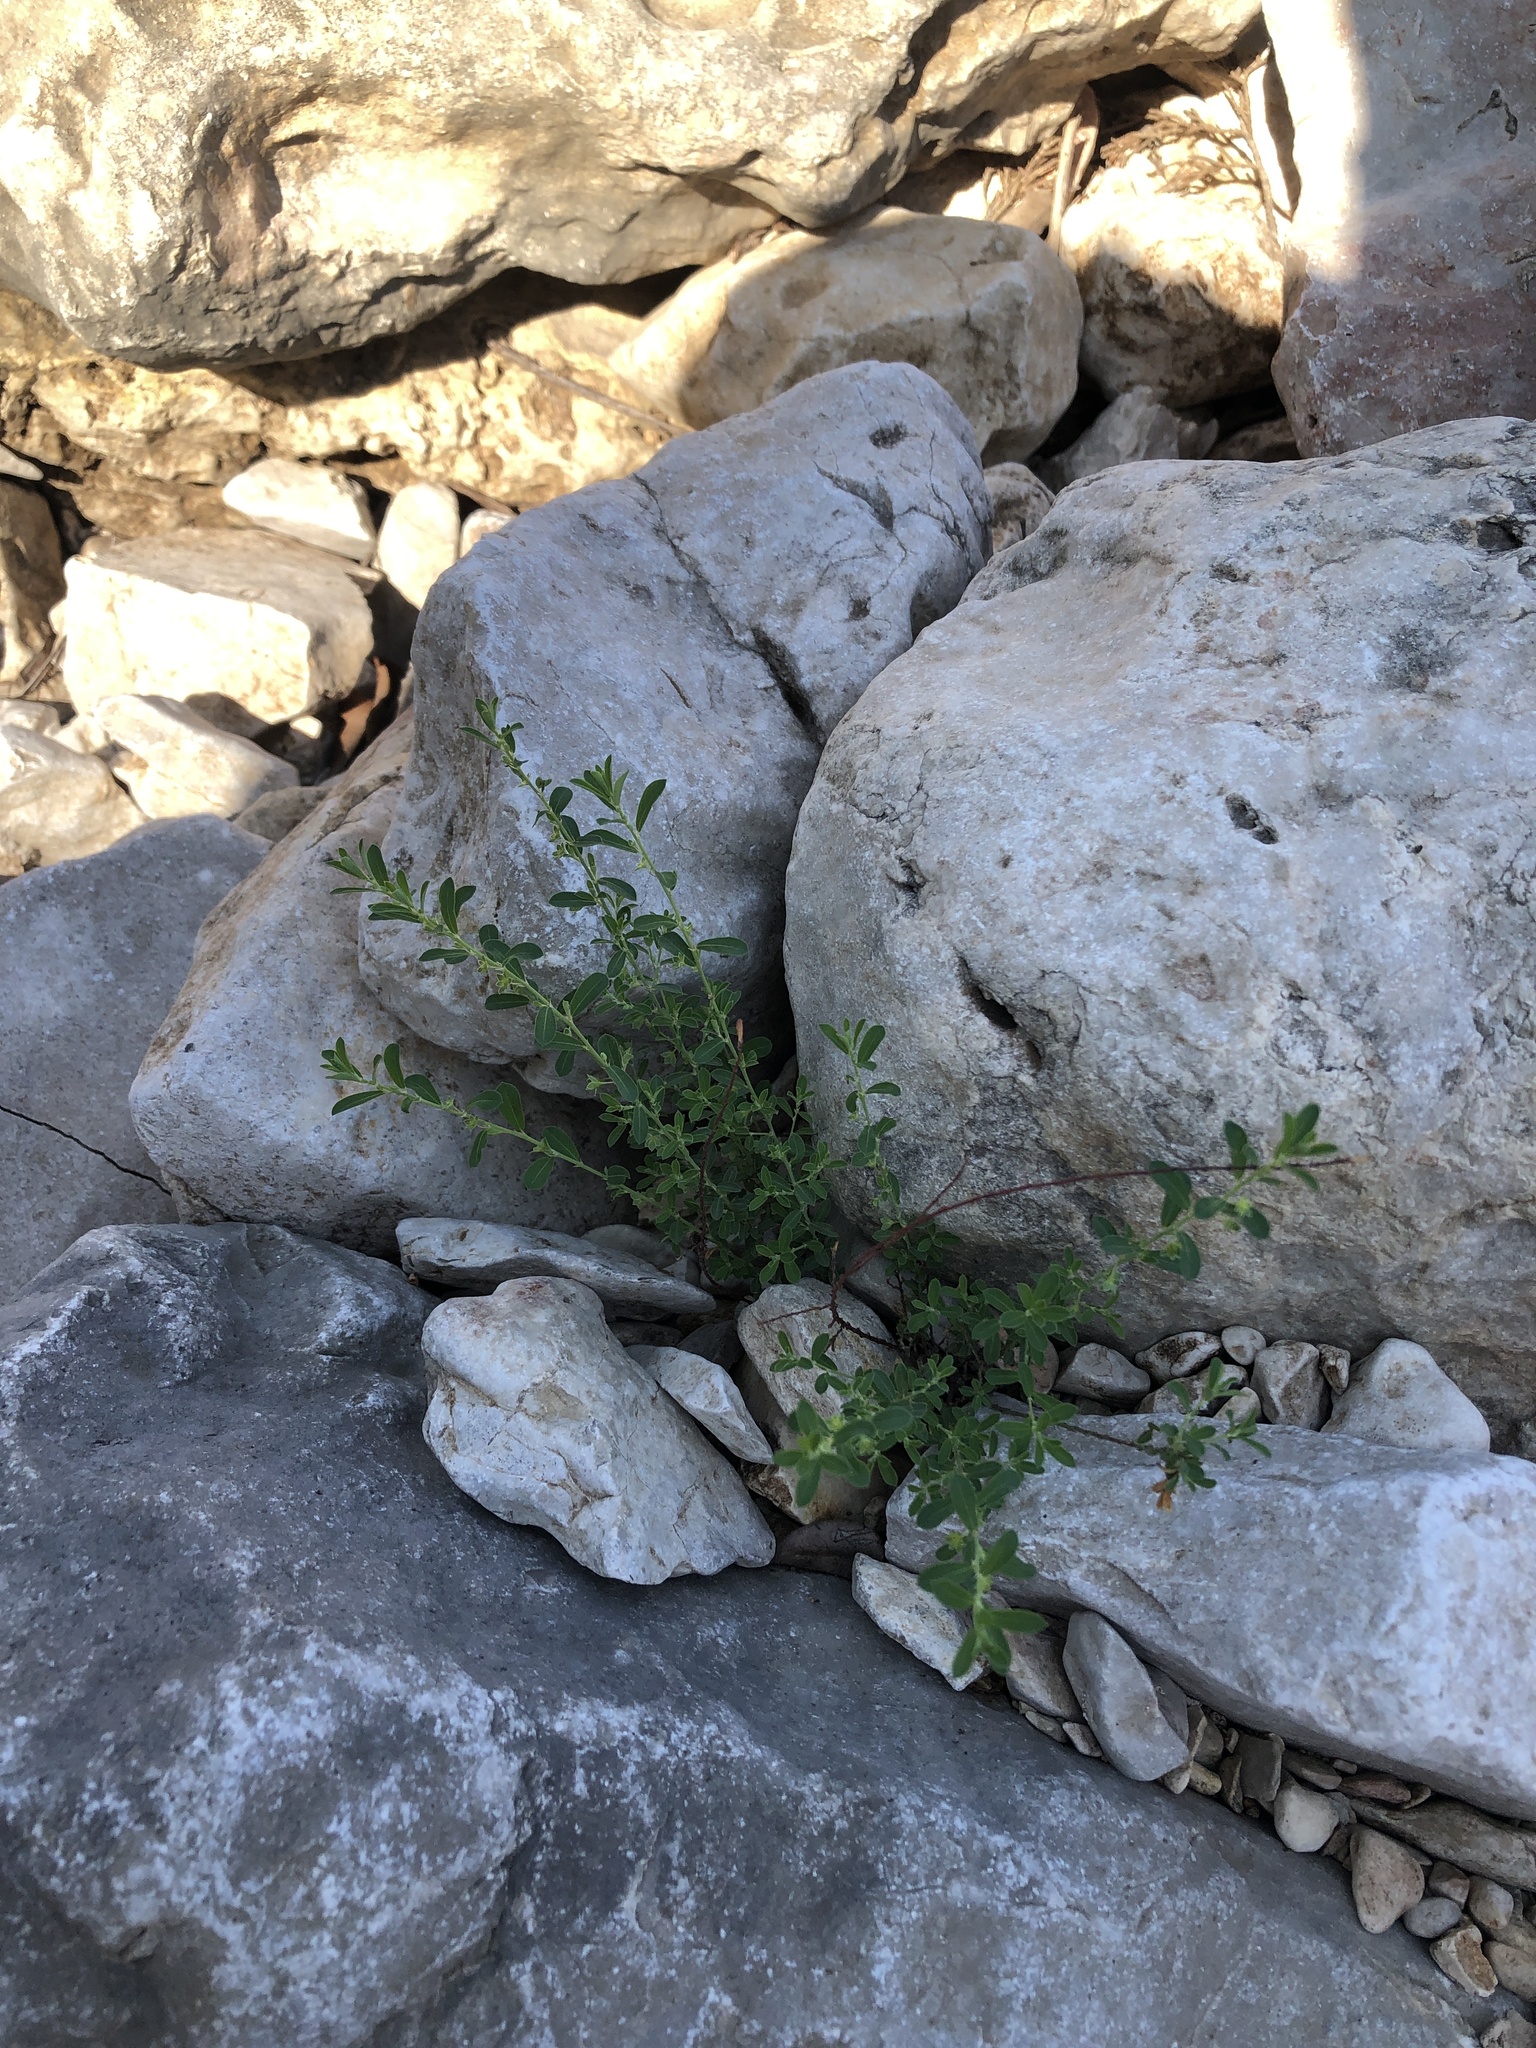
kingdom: Plantae
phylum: Tracheophyta
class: Magnoliopsida
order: Malpighiales
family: Phyllanthaceae
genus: Phyllanthus
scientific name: Phyllanthus polygonoides
